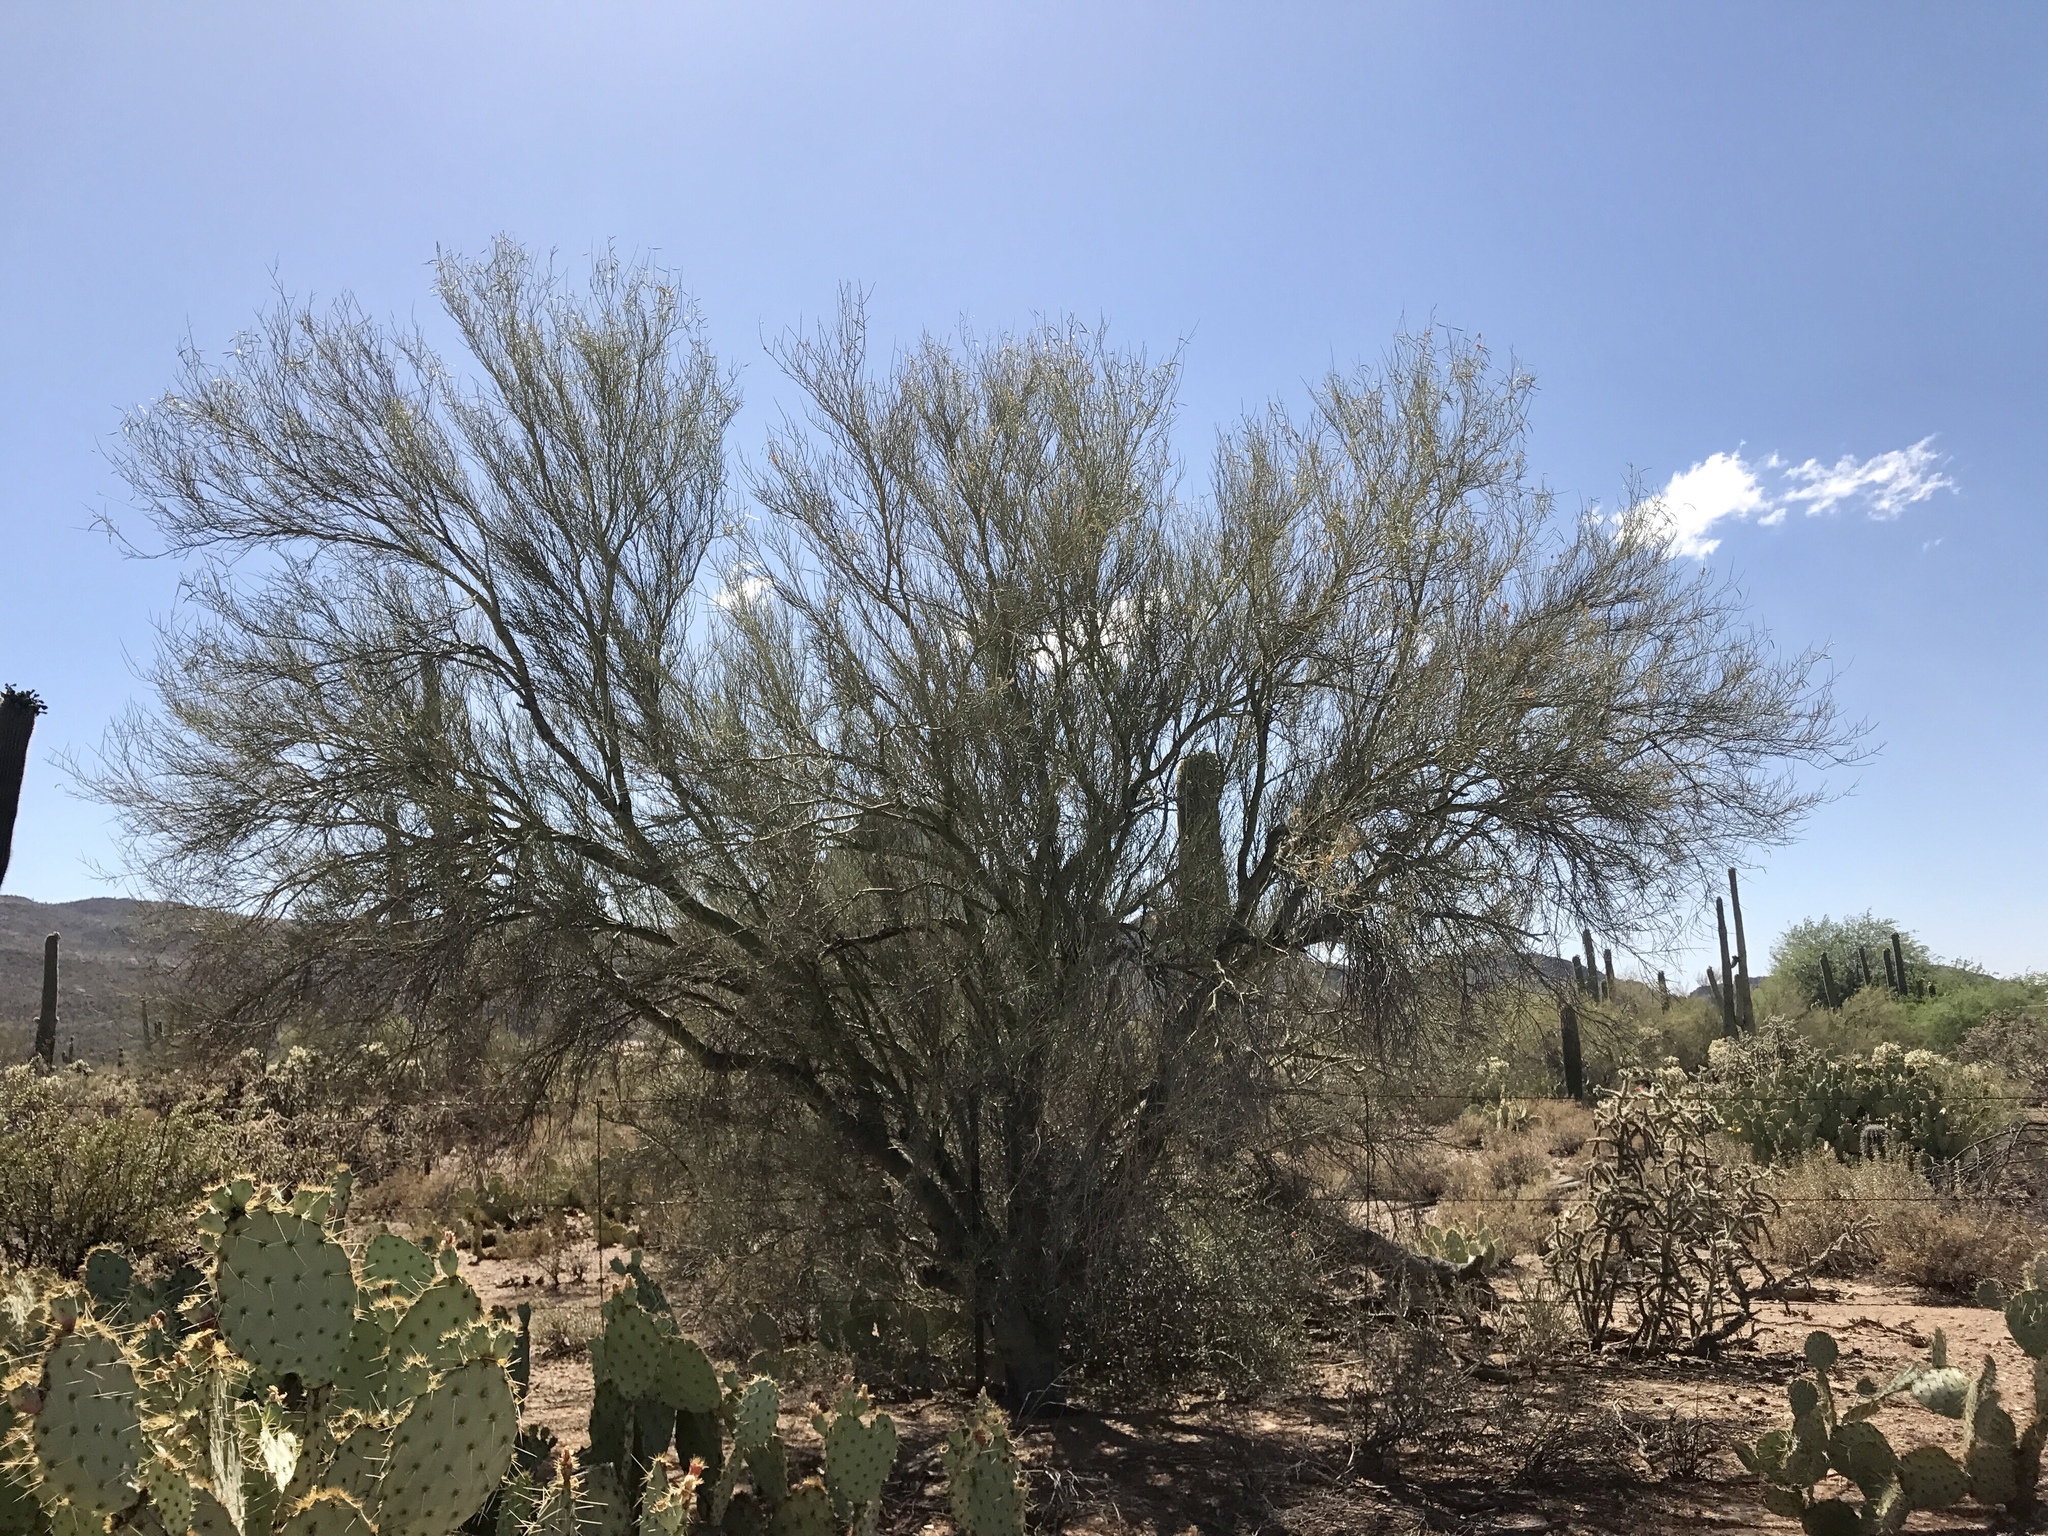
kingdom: Plantae
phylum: Tracheophyta
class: Magnoliopsida
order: Fabales
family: Fabaceae
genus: Parkinsonia
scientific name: Parkinsonia microphylla
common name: Yellow paloverde
